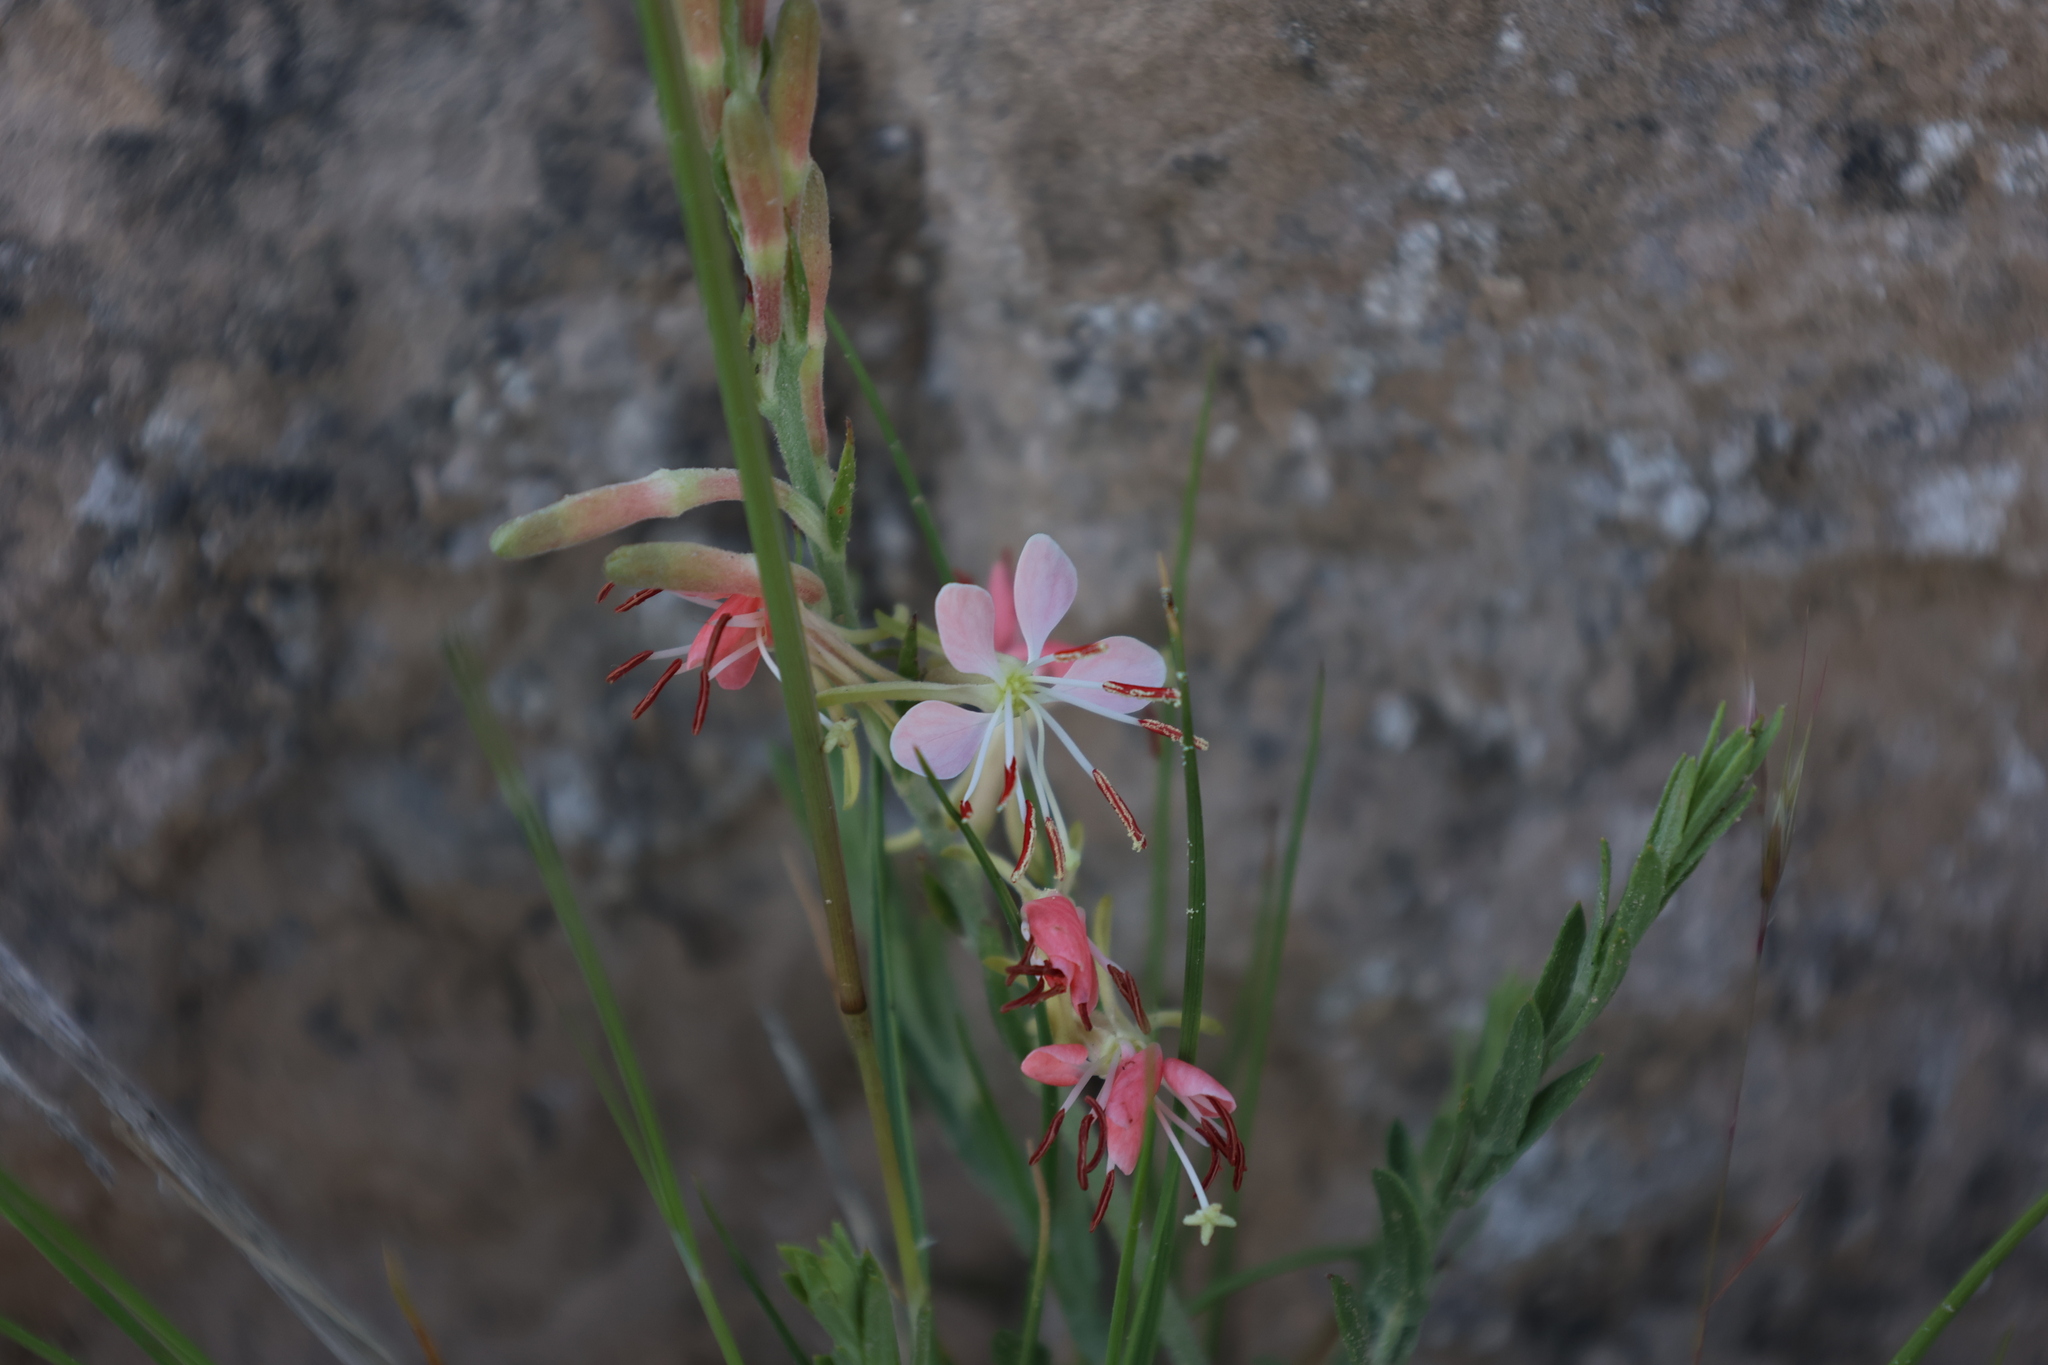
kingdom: Plantae
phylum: Tracheophyta
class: Magnoliopsida
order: Myrtales
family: Onagraceae
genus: Oenothera
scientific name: Oenothera suffrutescens
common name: Scarlet beeblossom
